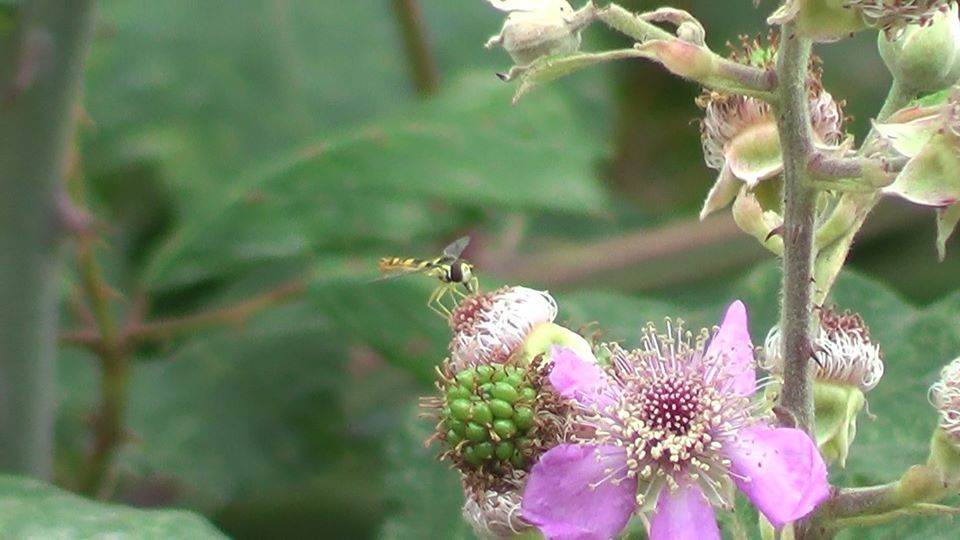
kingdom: Animalia
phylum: Arthropoda
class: Insecta
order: Diptera
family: Syrphidae
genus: Sphaerophoria
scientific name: Sphaerophoria scripta
